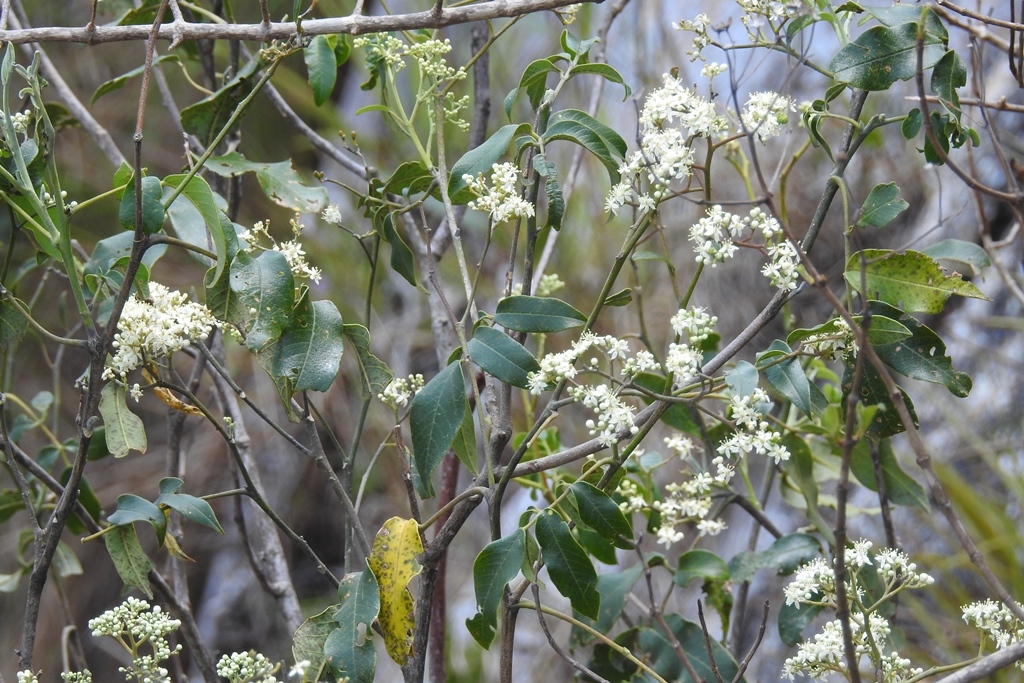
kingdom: Plantae
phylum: Tracheophyta
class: Magnoliopsida
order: Malpighiales
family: Malpighiaceae
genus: Psychopterys
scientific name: Psychopterys multiflora
